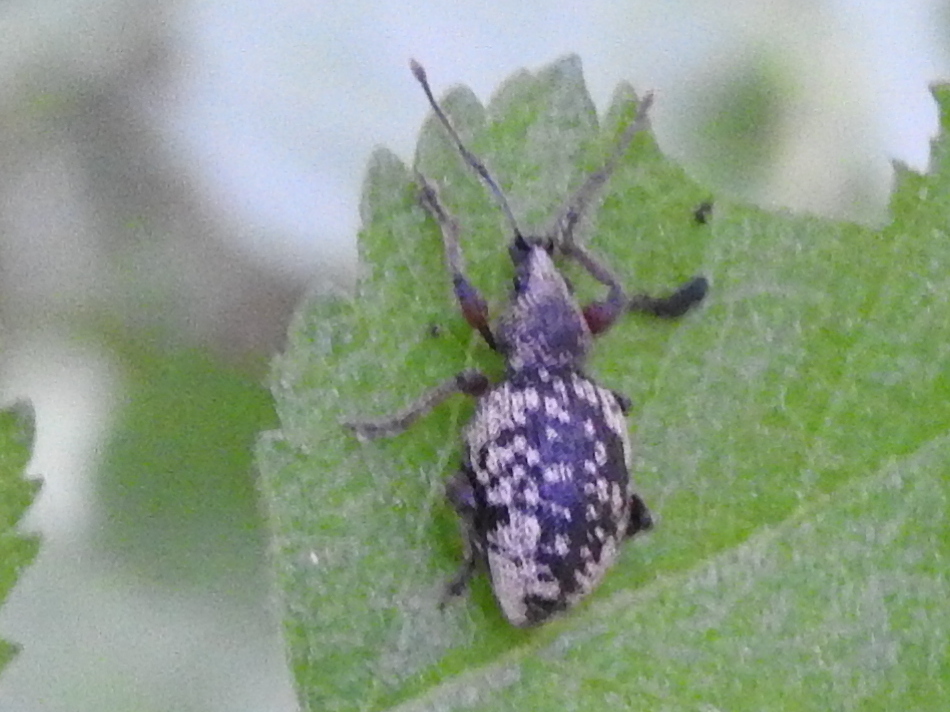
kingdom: Animalia
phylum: Arthropoda
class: Insecta
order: Coleoptera
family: Curculionidae
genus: Otiorhynchus
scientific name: Otiorhynchus lepidopterus
